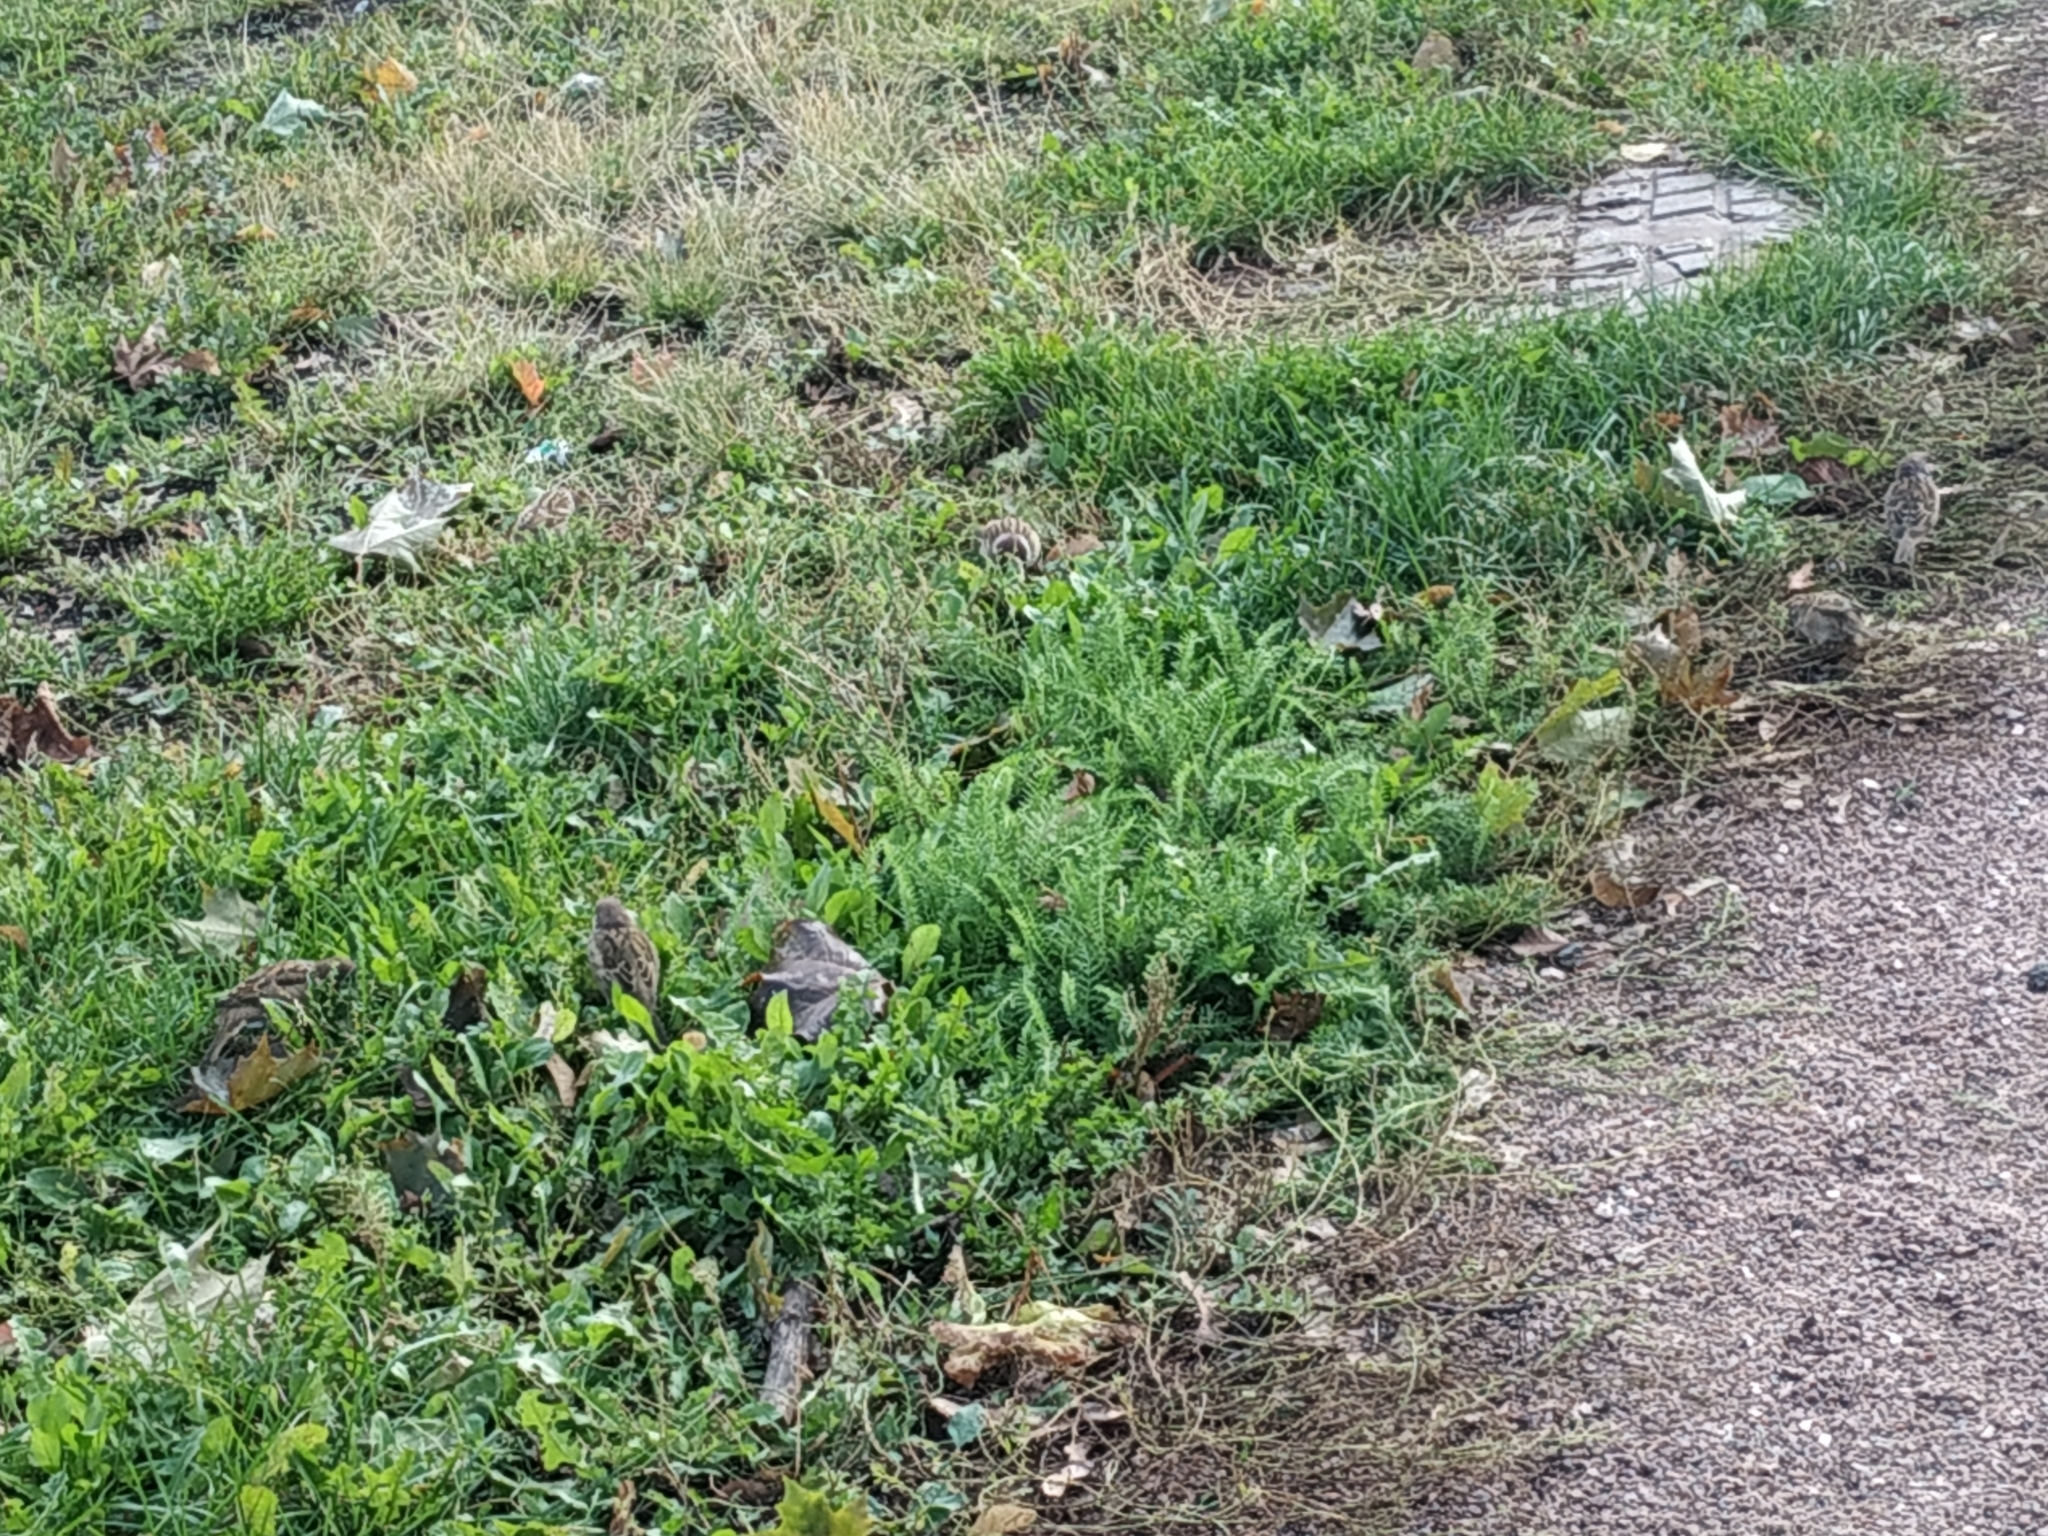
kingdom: Animalia
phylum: Chordata
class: Aves
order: Passeriformes
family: Passeridae
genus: Passer
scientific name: Passer montanus
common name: Eurasian tree sparrow
